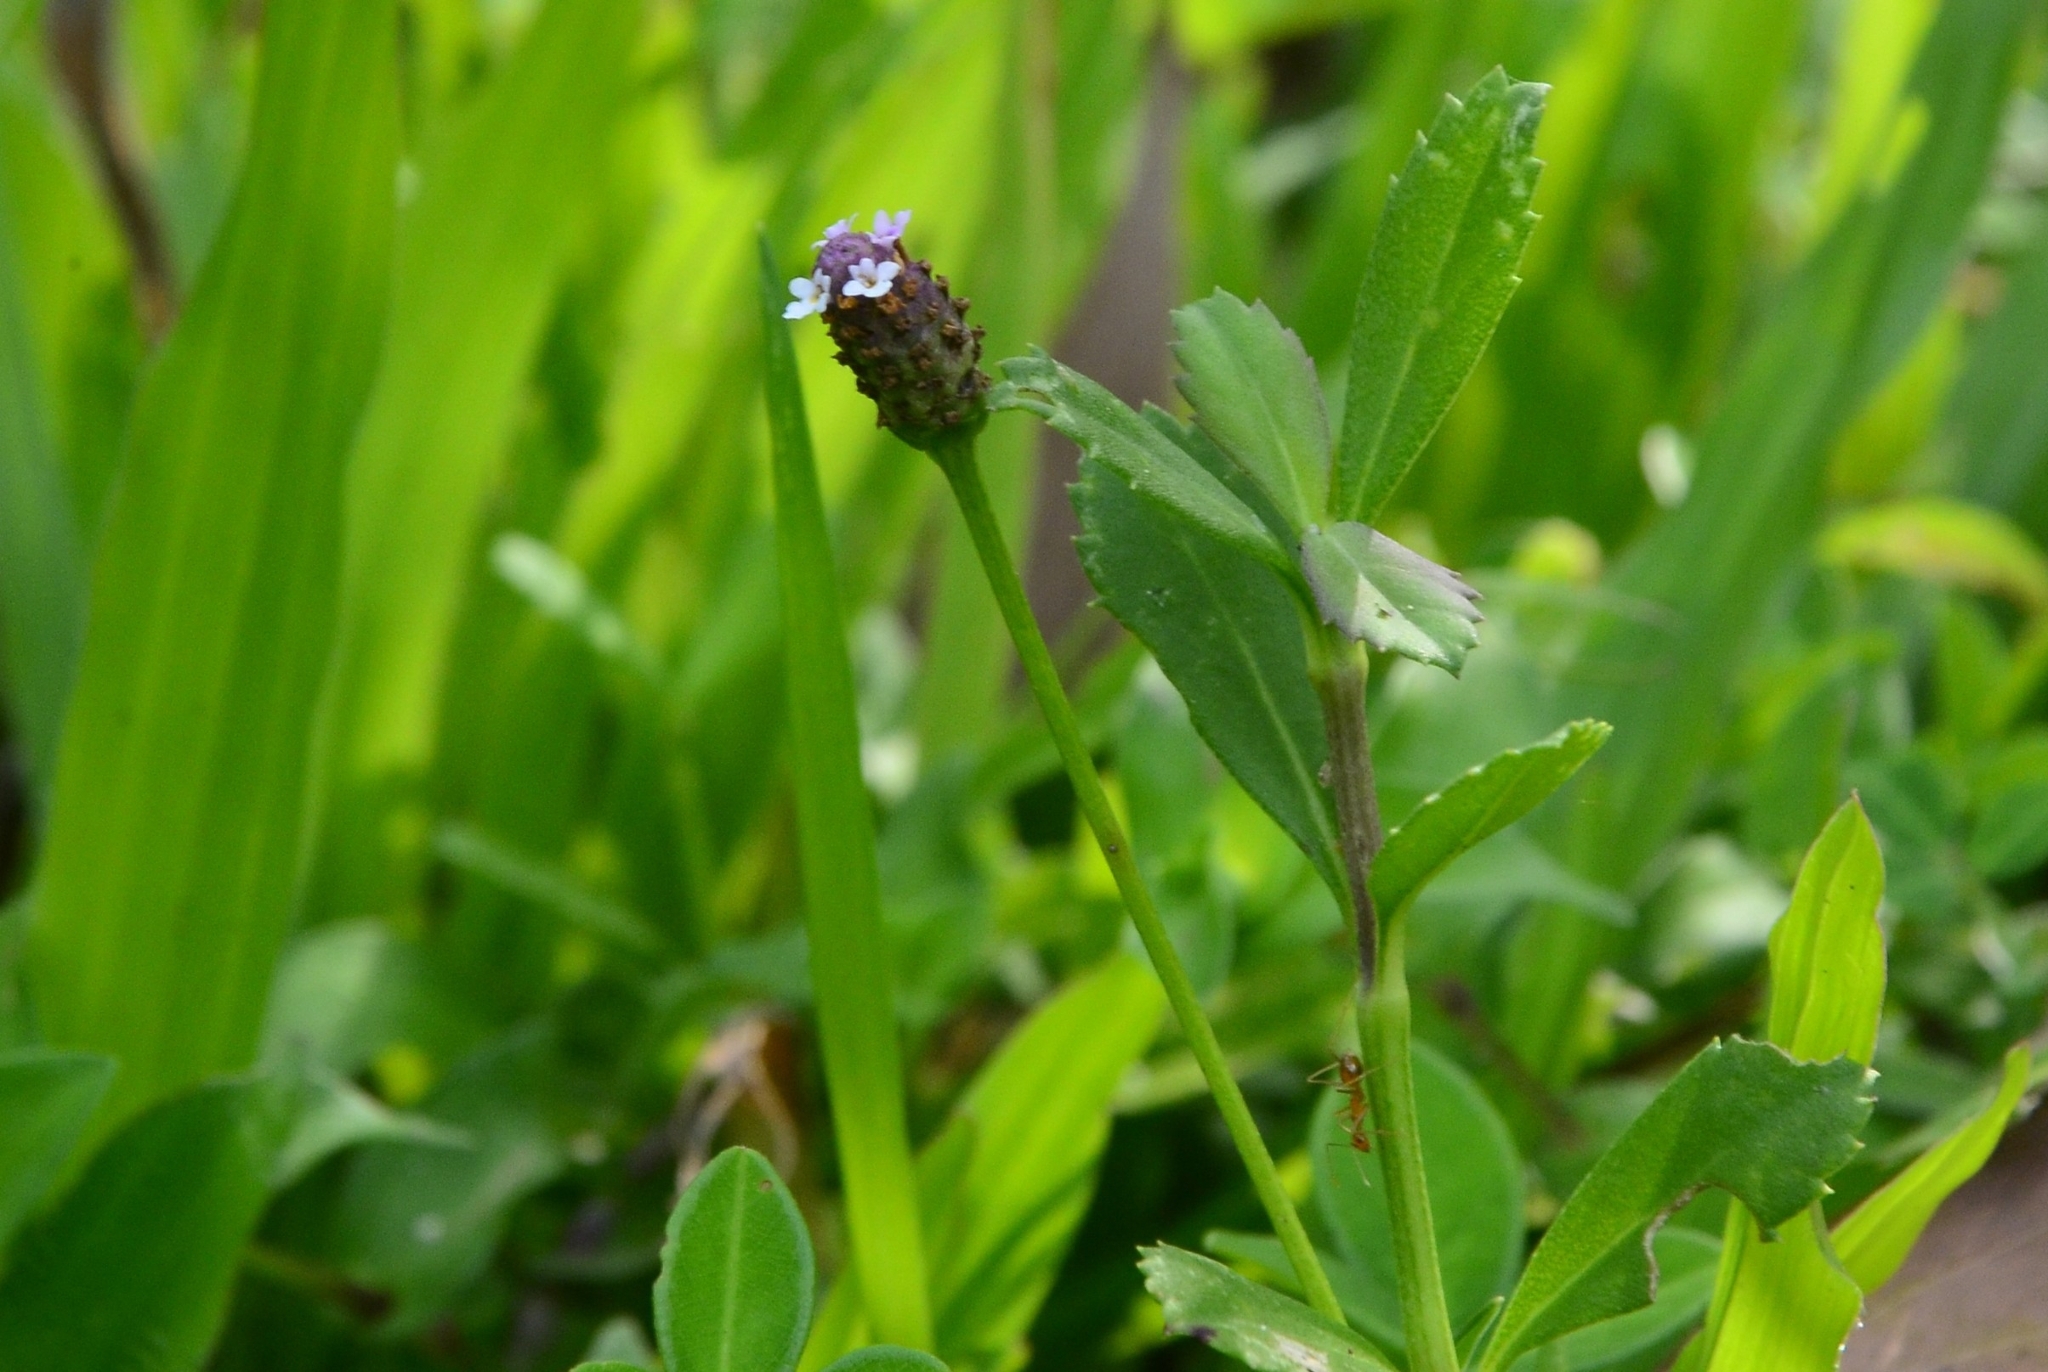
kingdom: Plantae
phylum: Tracheophyta
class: Magnoliopsida
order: Lamiales
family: Verbenaceae
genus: Phyla
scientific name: Phyla nodiflora
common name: Frogfruit
